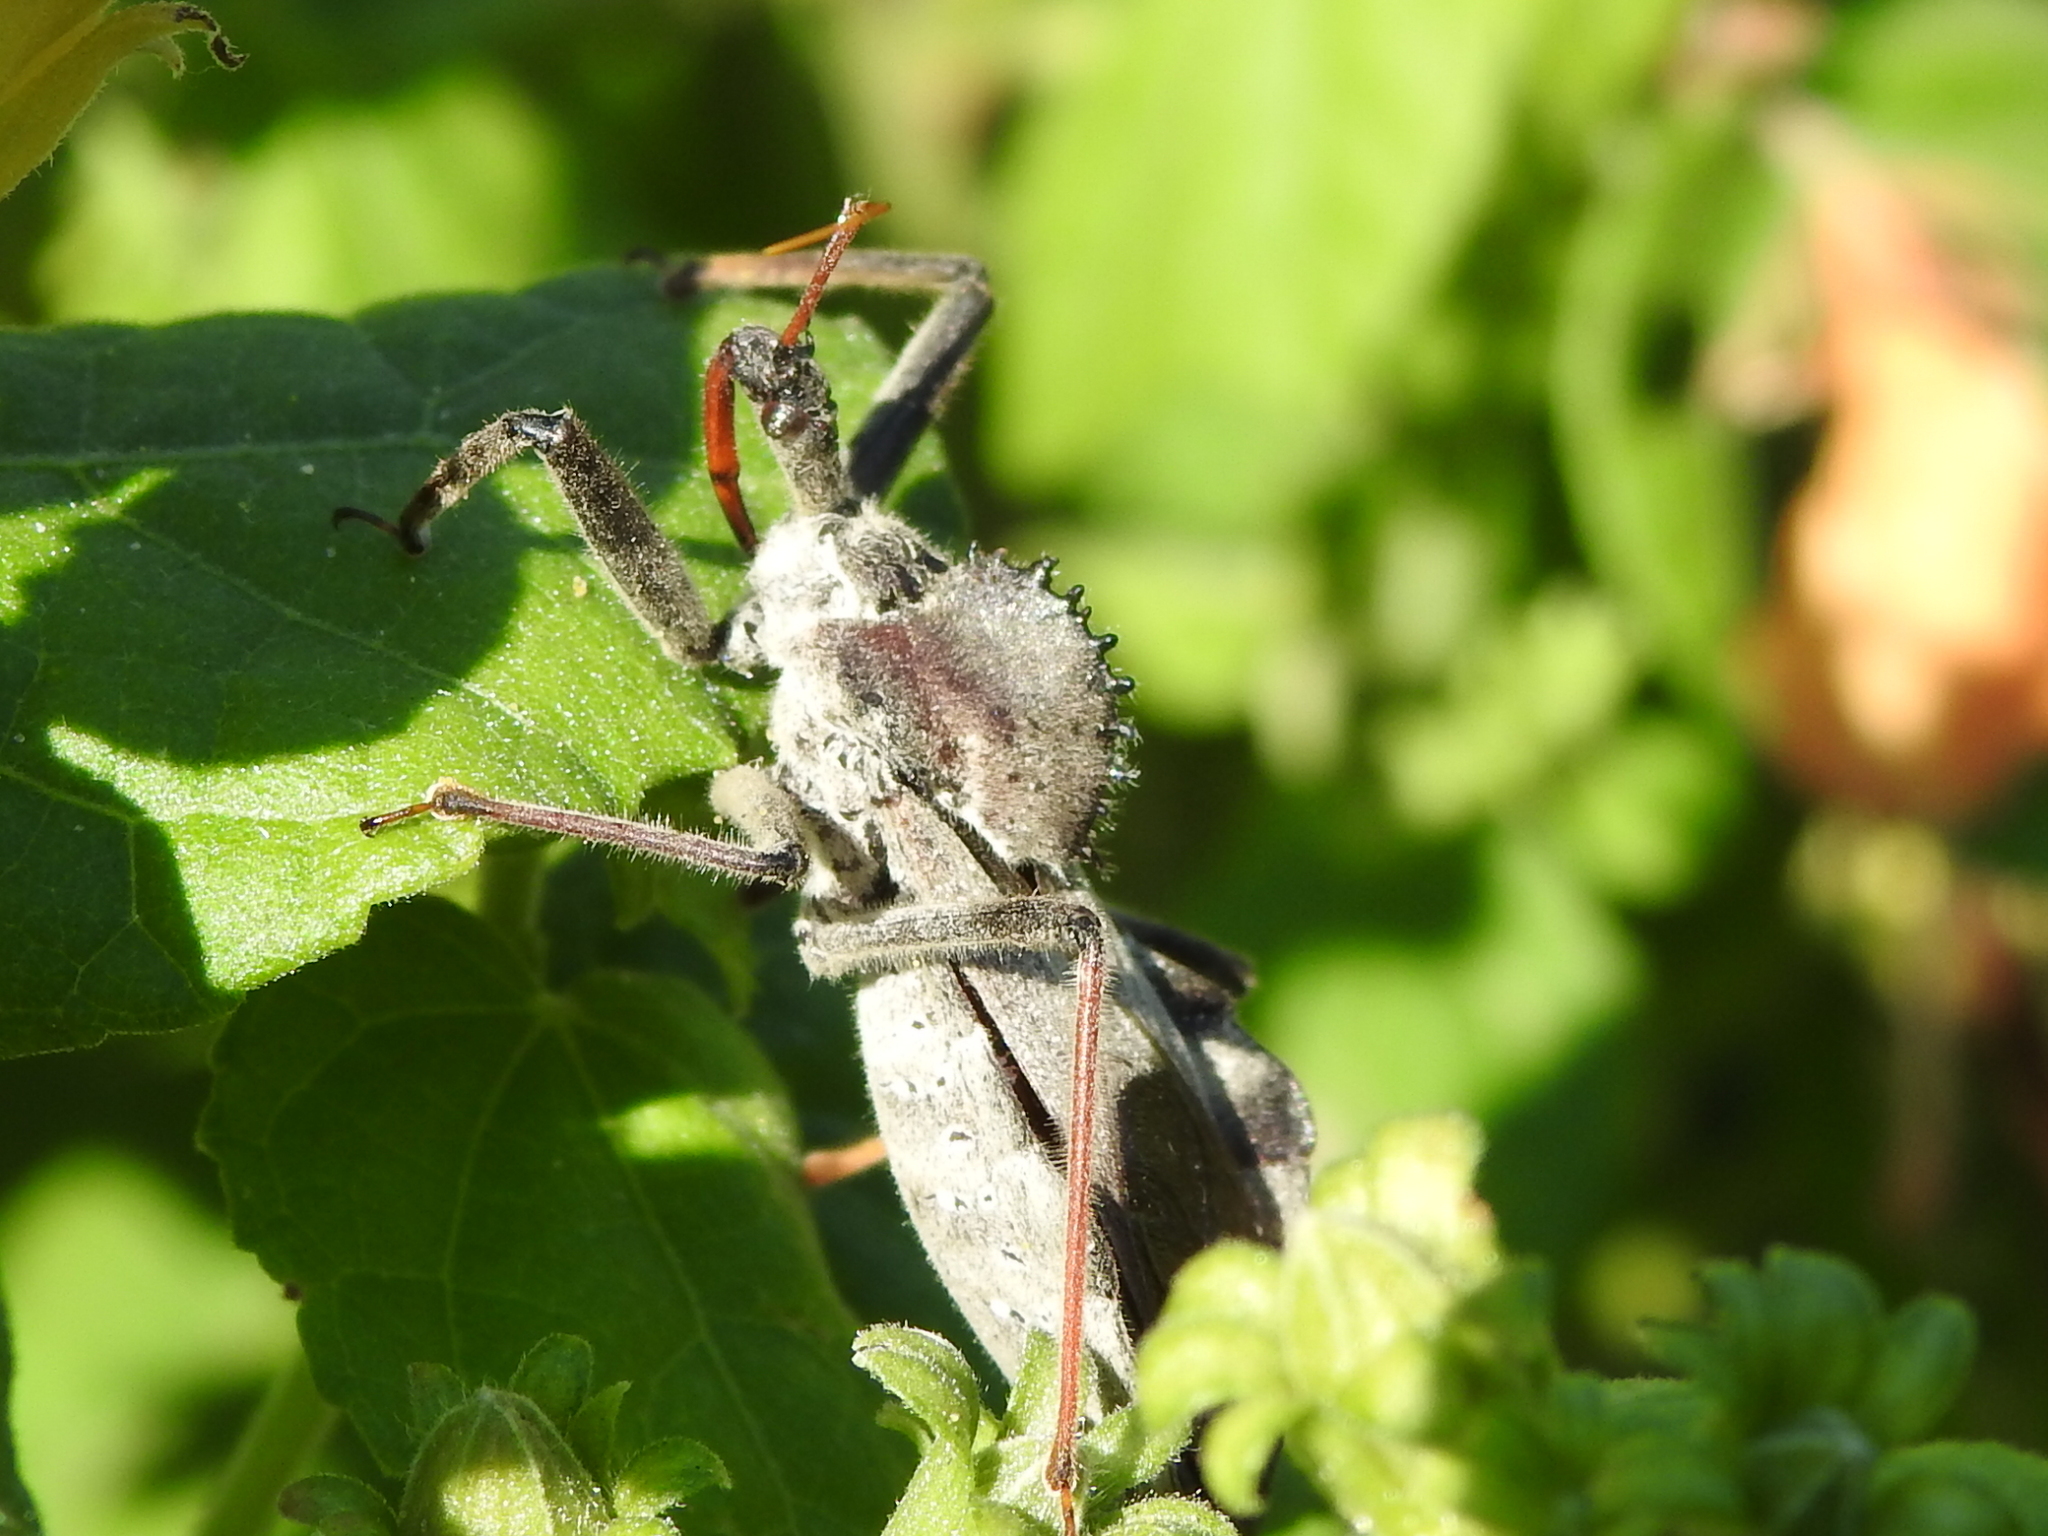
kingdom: Animalia
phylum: Arthropoda
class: Insecta
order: Hemiptera
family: Reduviidae
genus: Arilus
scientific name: Arilus cristatus
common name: North american wheel bug
